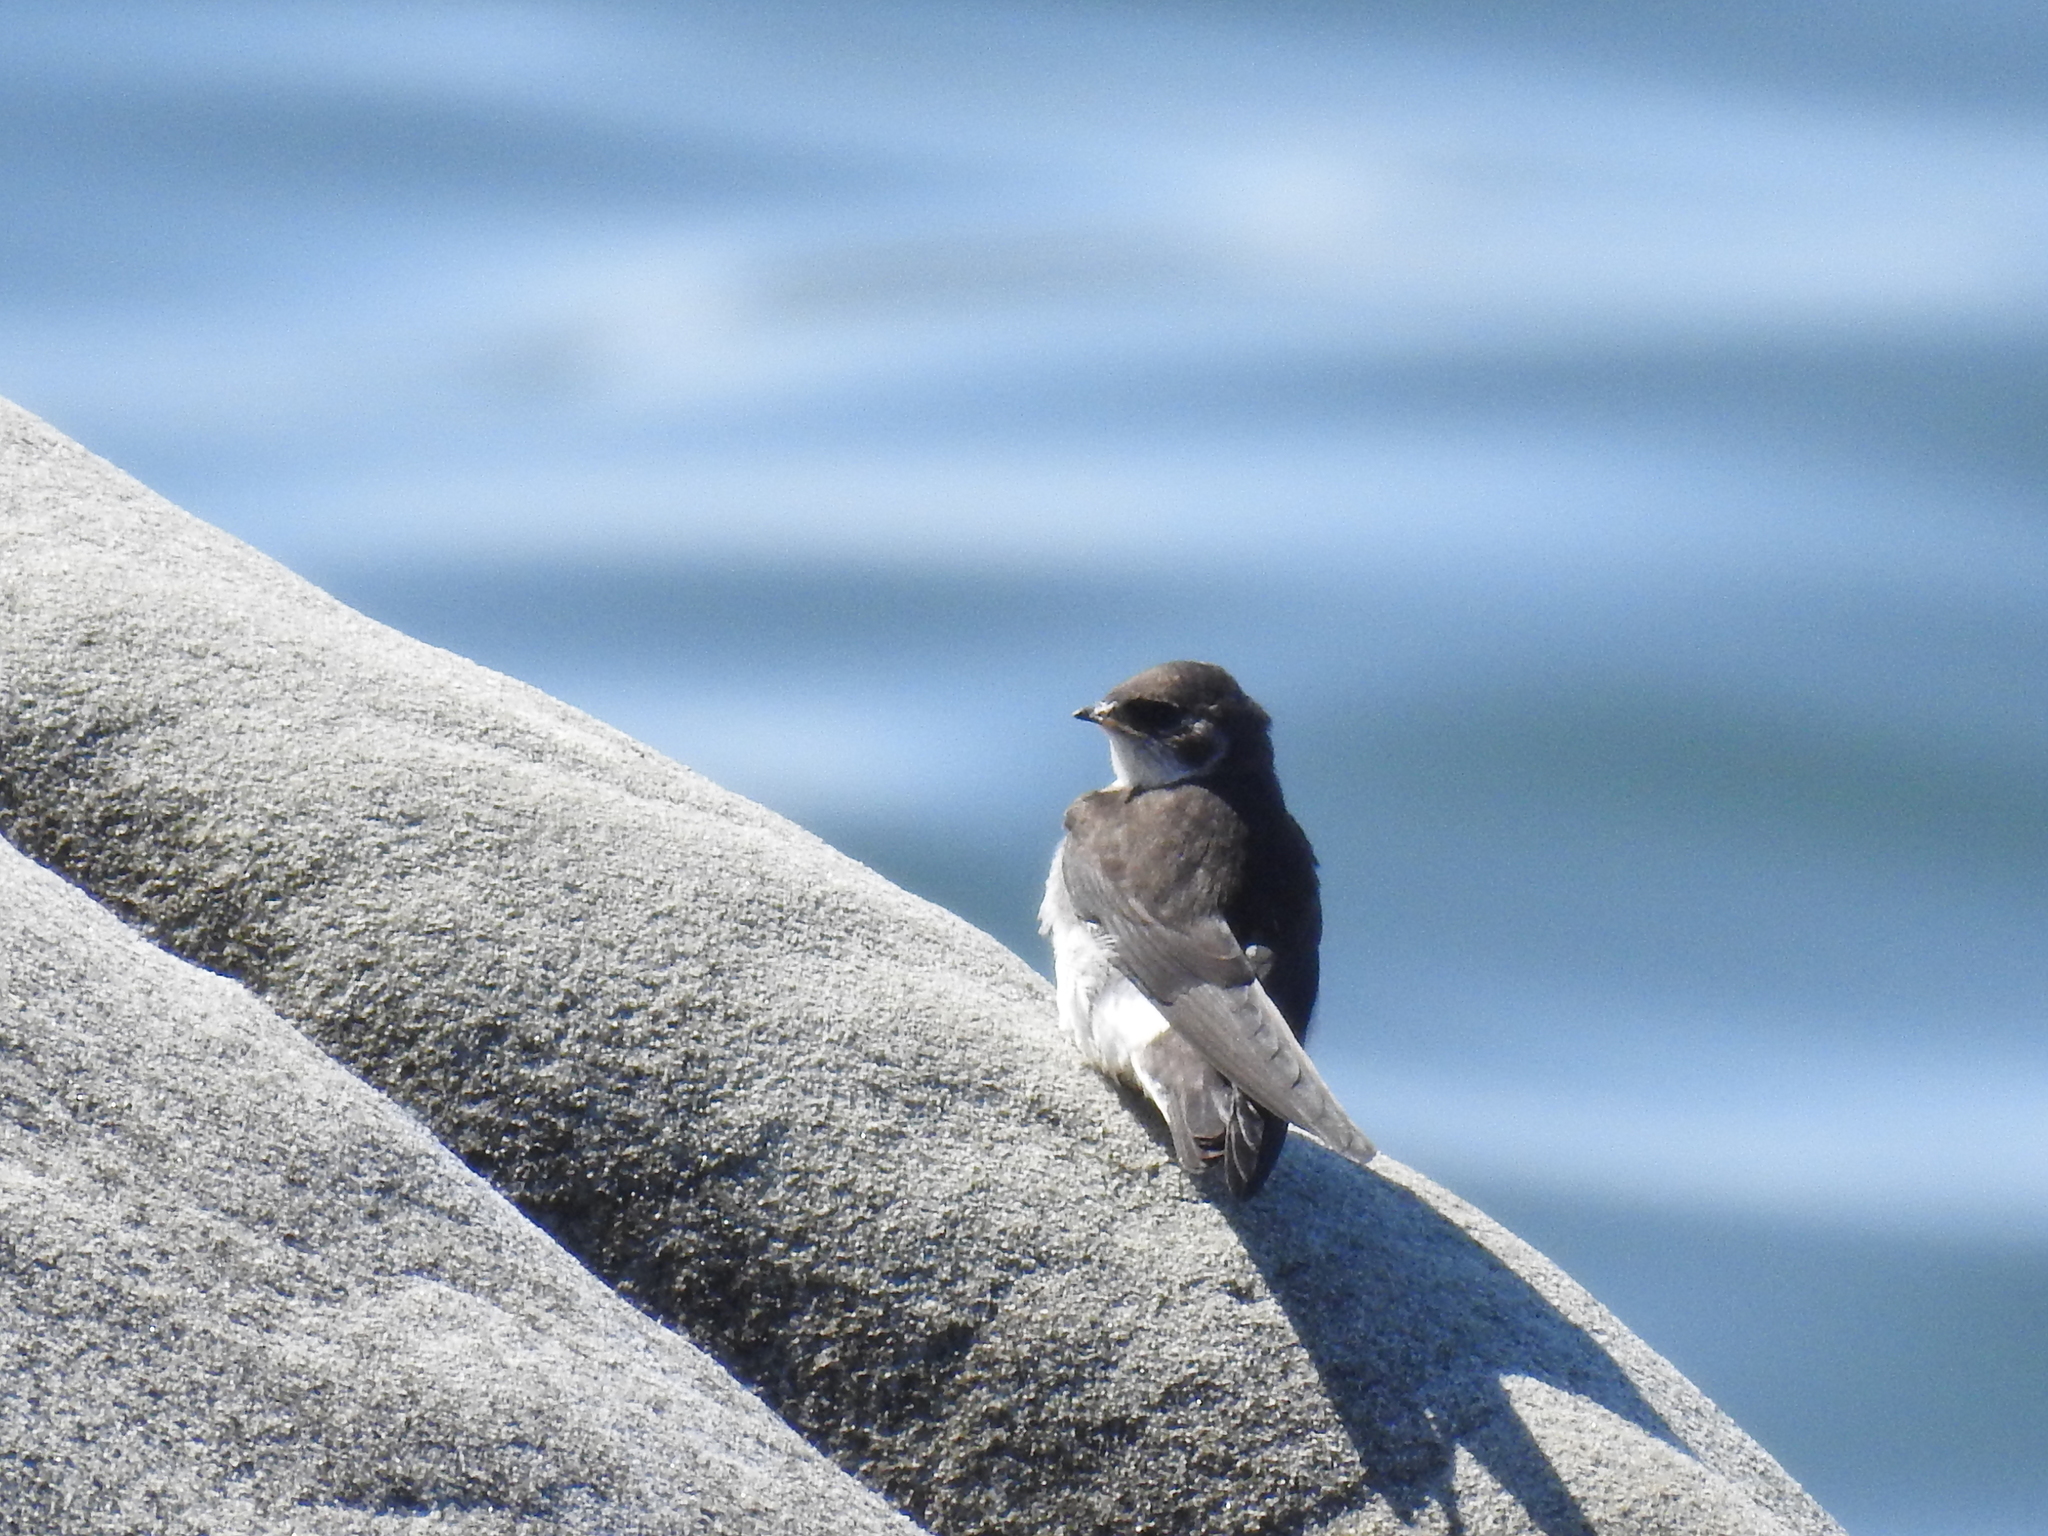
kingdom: Animalia
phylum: Chordata
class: Aves
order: Passeriformes
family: Hirundinidae
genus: Tachycineta
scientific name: Tachycineta bicolor
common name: Tree swallow
